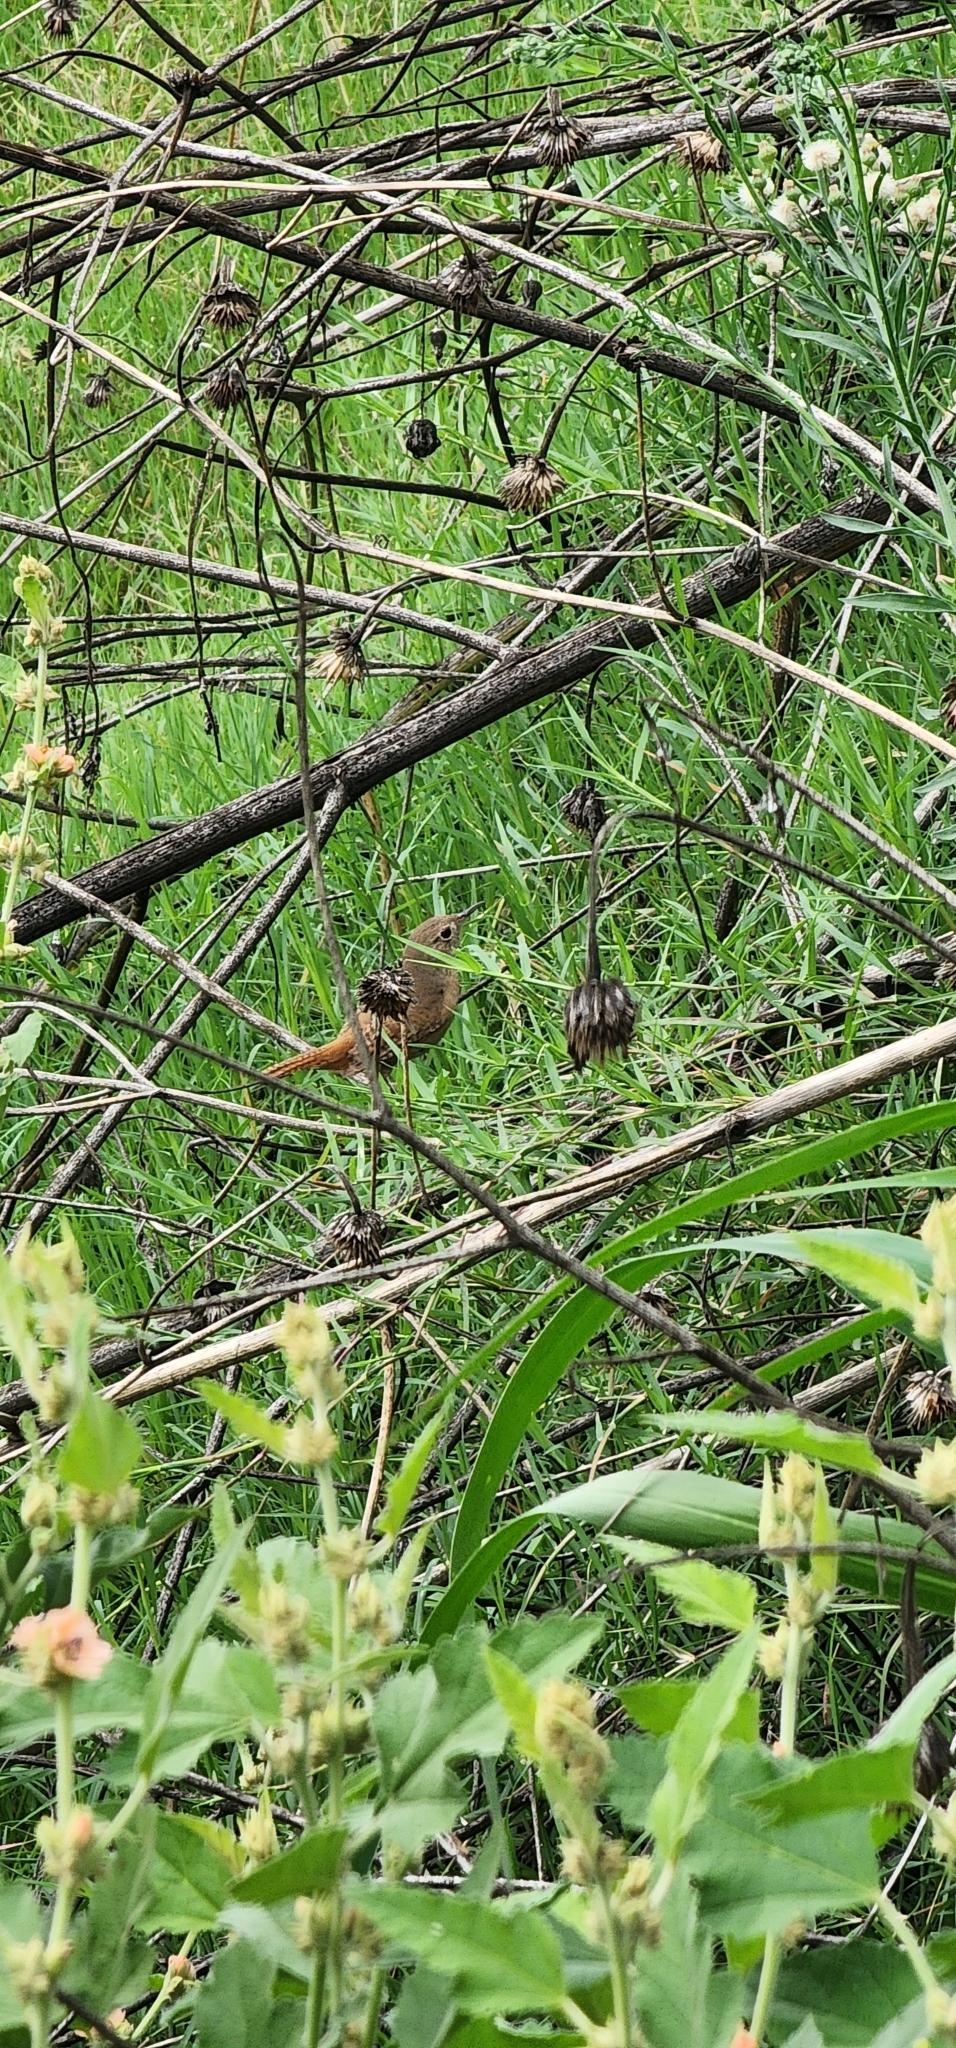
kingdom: Animalia
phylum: Chordata
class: Aves
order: Passeriformes
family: Troglodytidae
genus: Troglodytes
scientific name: Troglodytes aedon
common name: House wren
